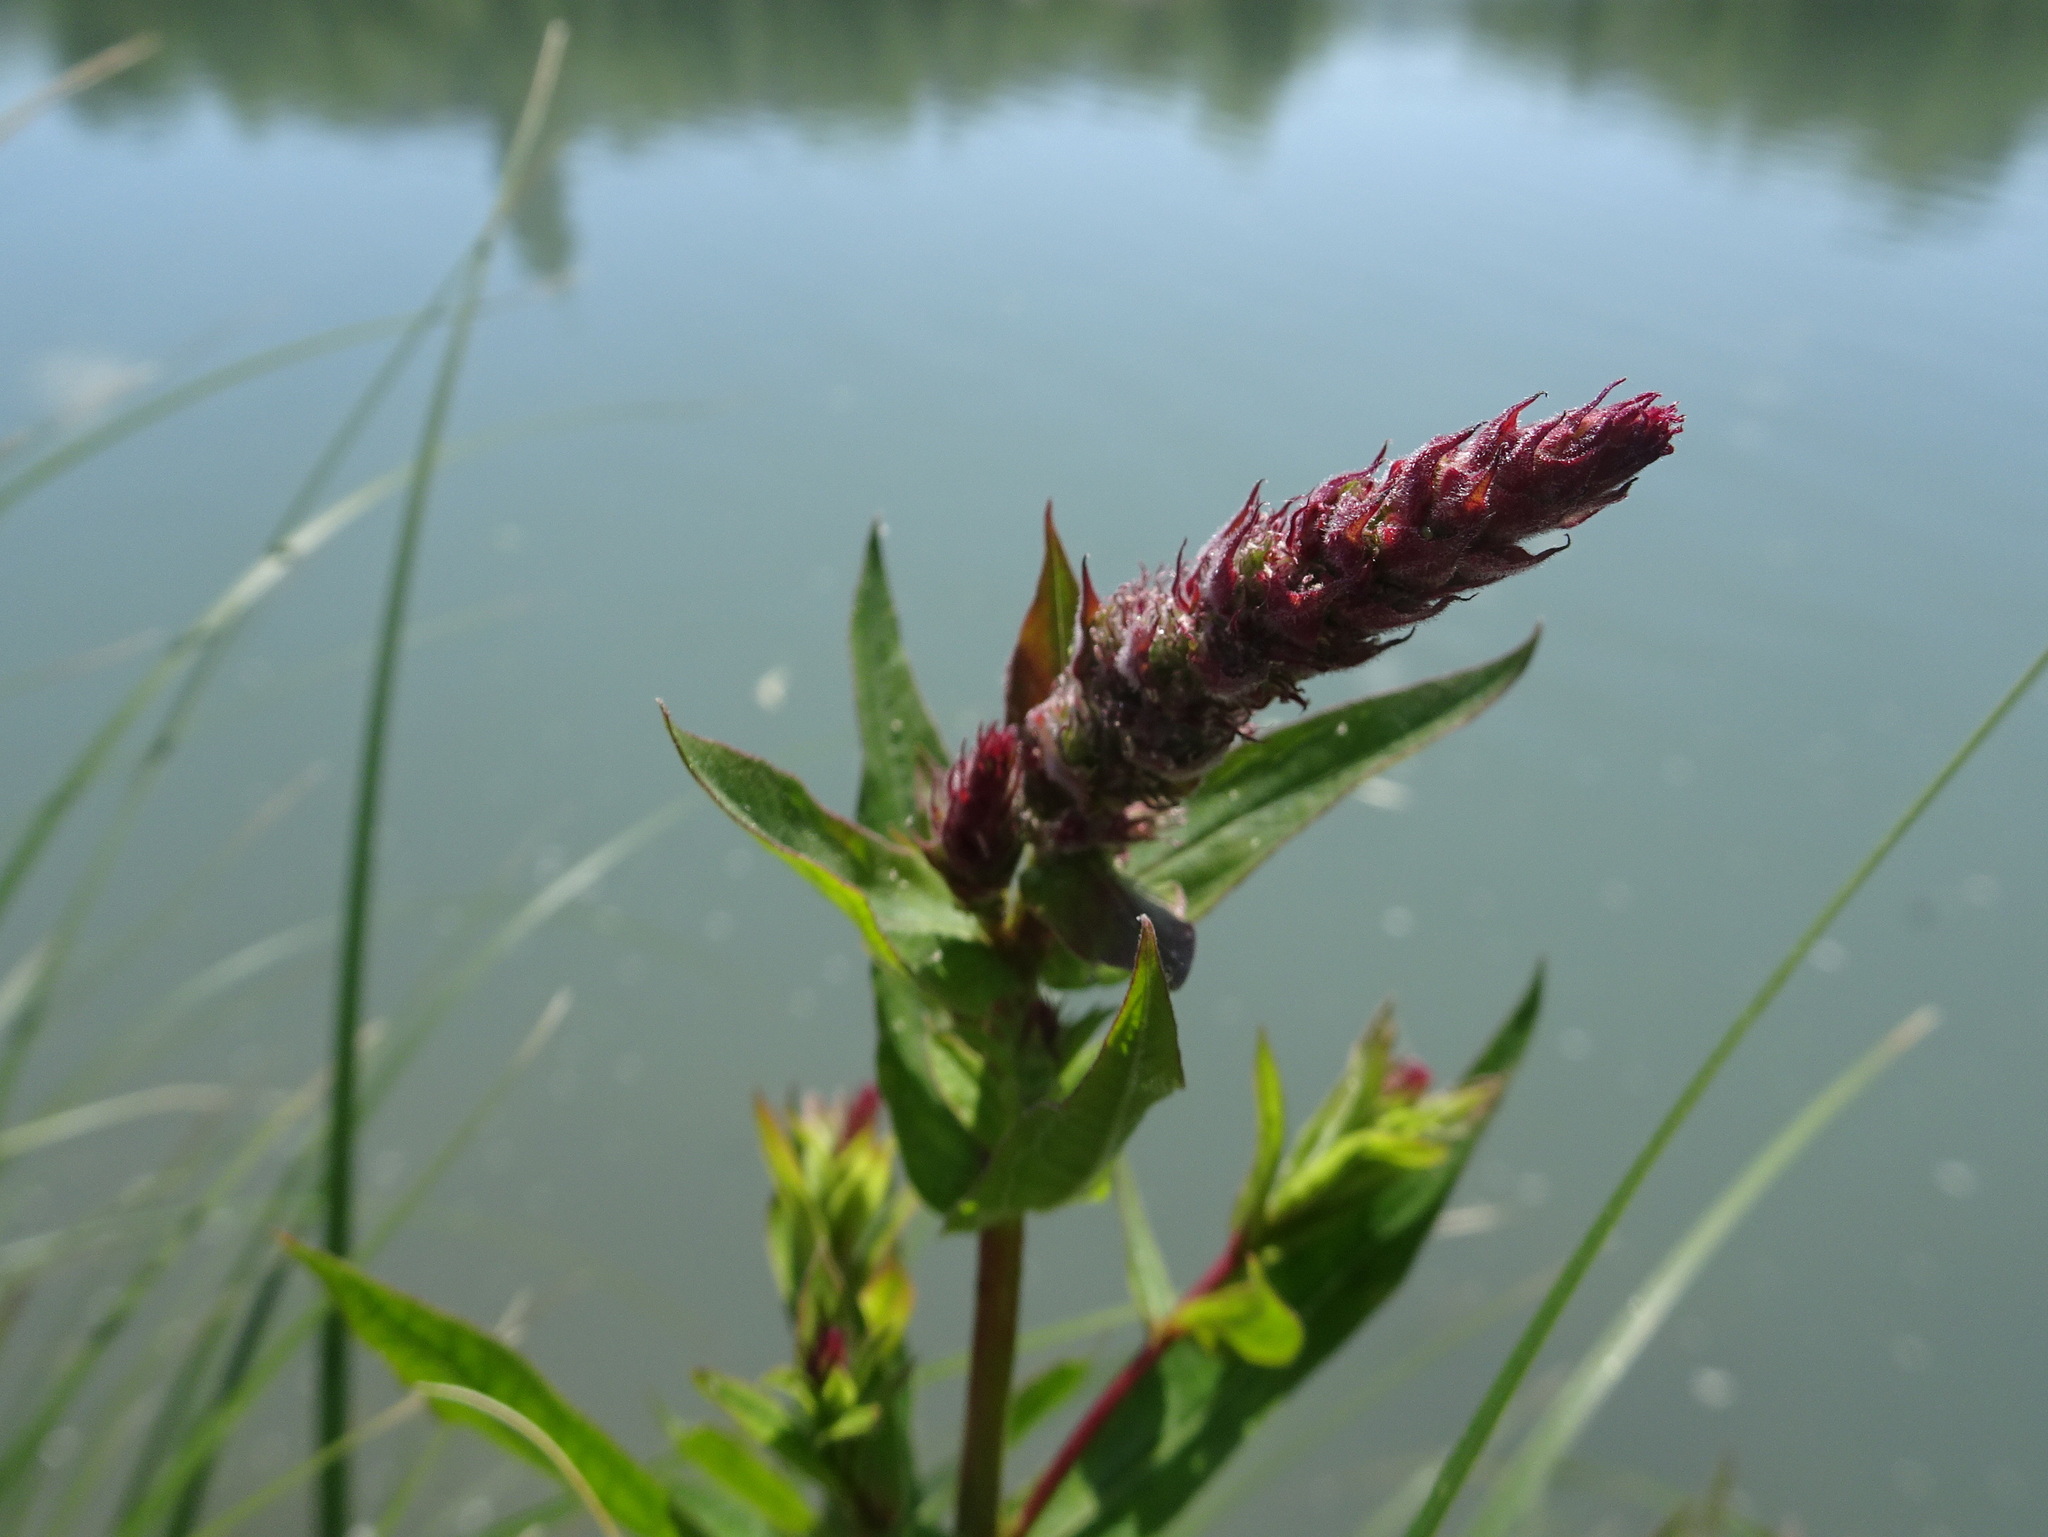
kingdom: Plantae
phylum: Tracheophyta
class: Magnoliopsida
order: Myrtales
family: Lythraceae
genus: Lythrum
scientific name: Lythrum salicaria
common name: Purple loosestrife
